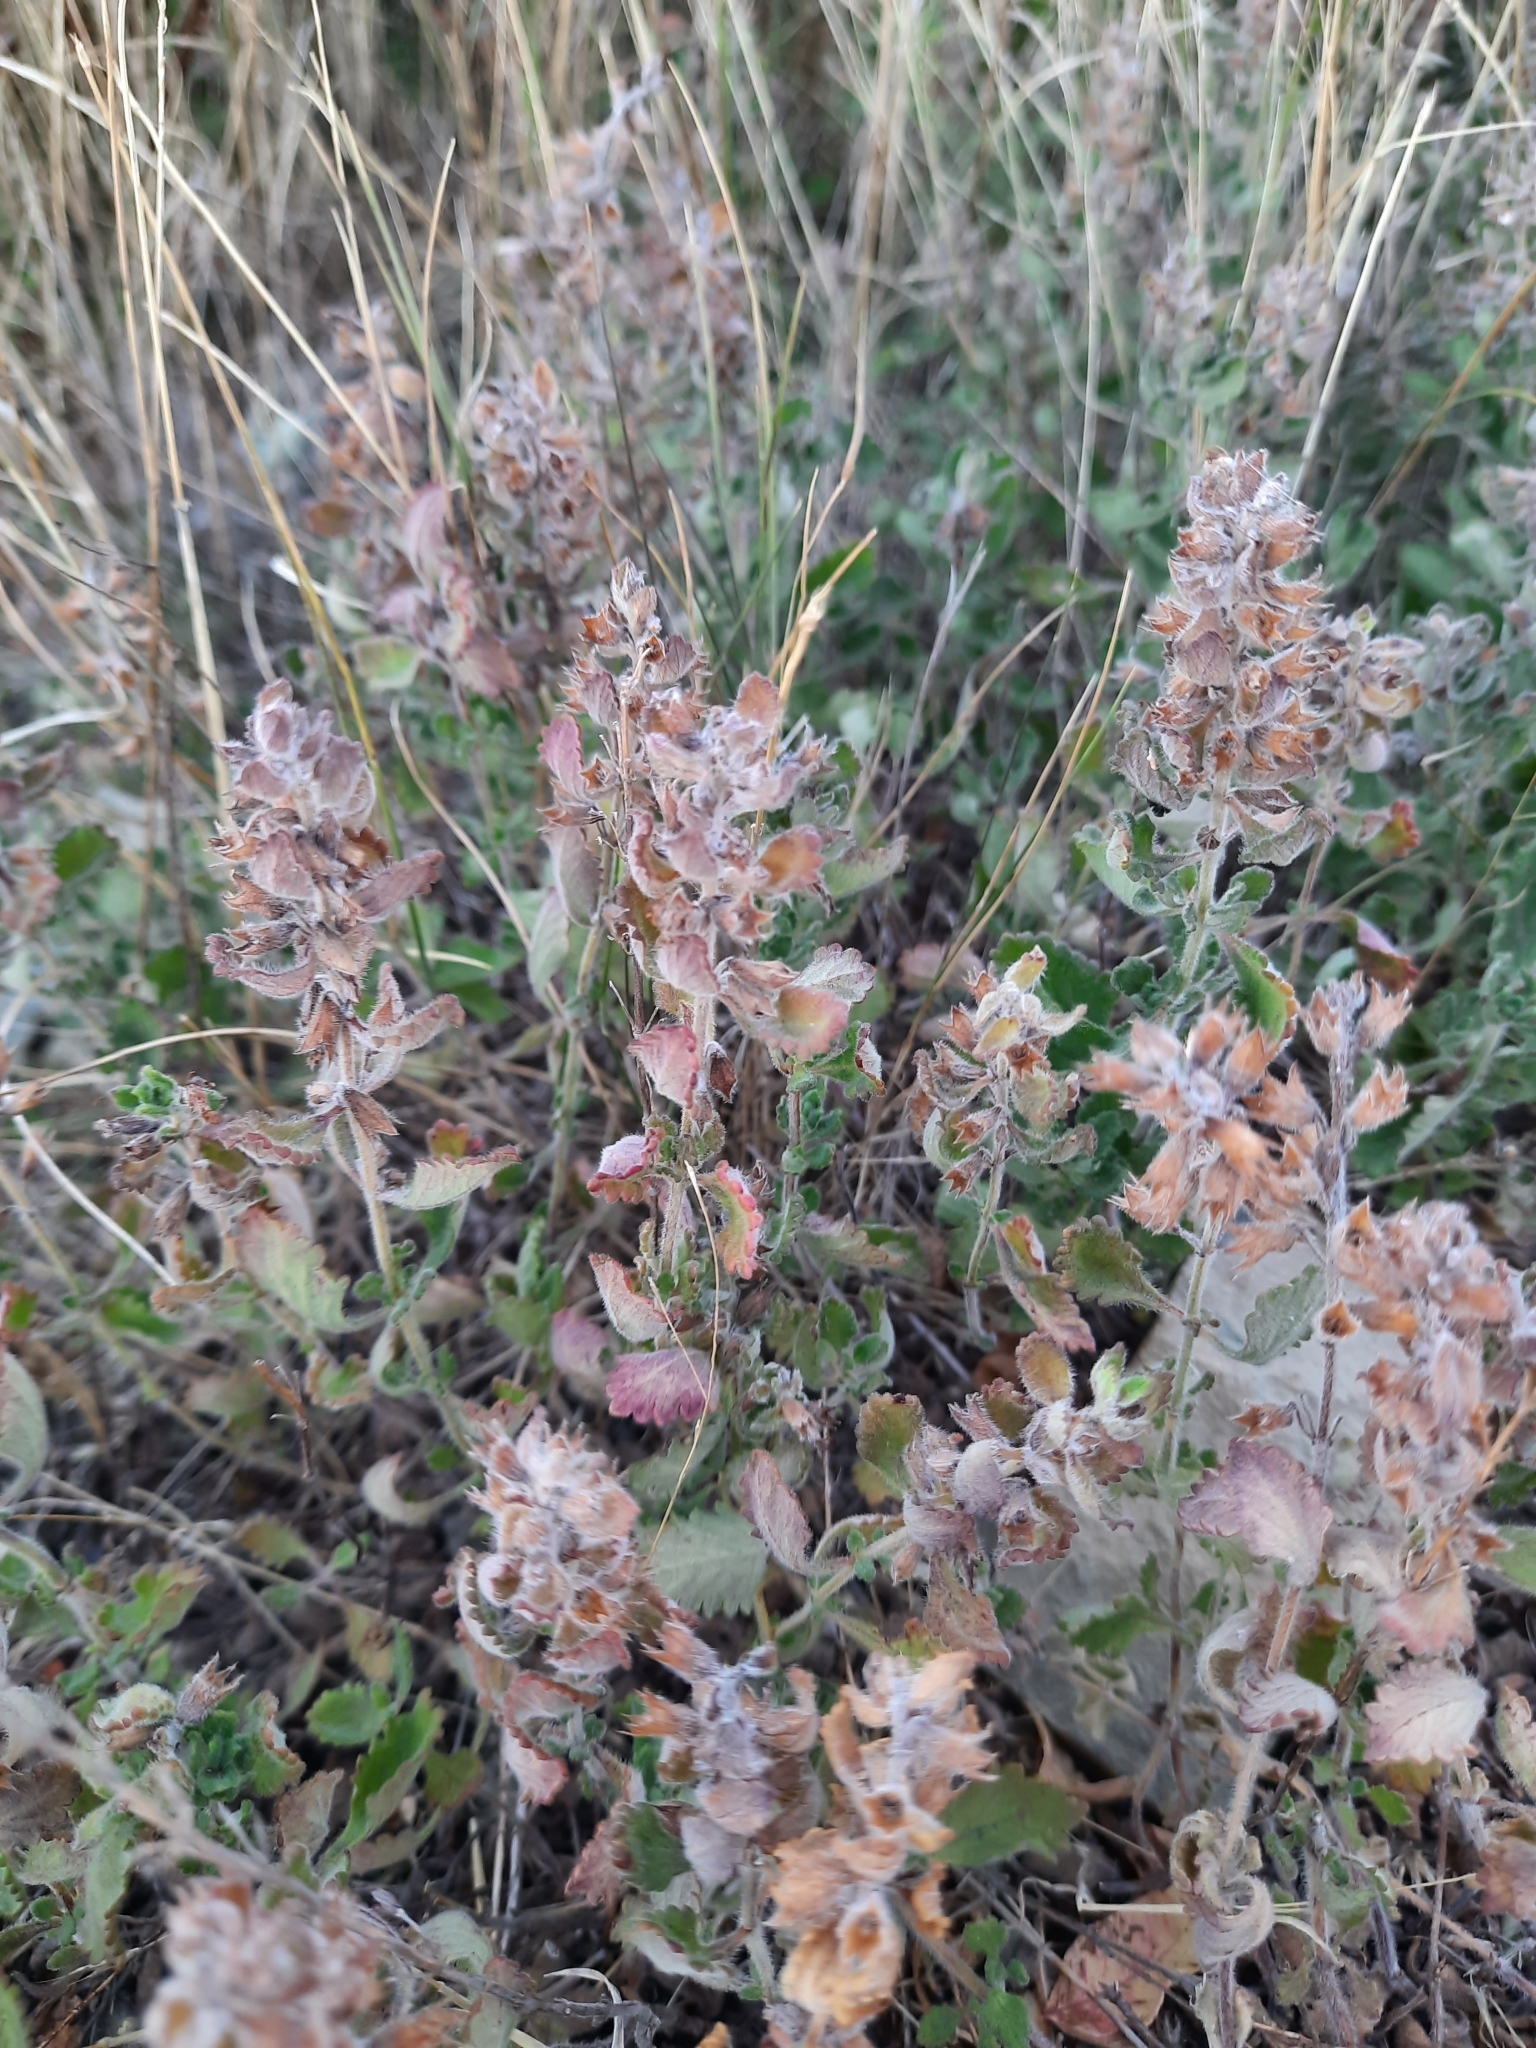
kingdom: Plantae
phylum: Tracheophyta
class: Magnoliopsida
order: Lamiales
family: Lamiaceae
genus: Teucrium
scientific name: Teucrium chamaedrys
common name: Wall germander
